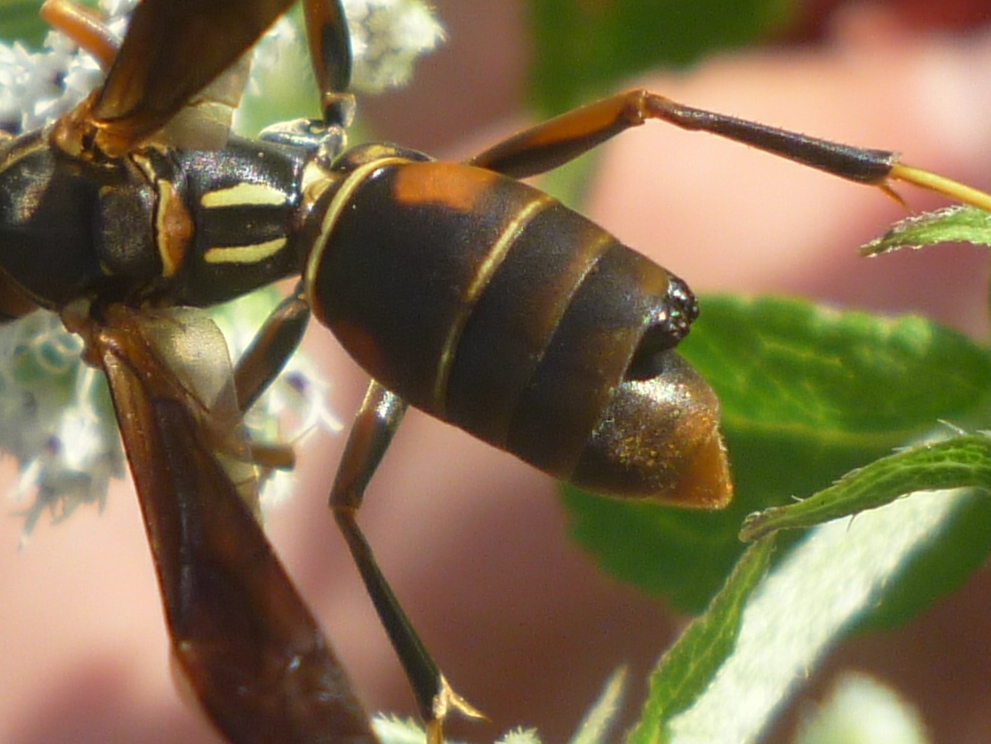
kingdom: Animalia
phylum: Arthropoda
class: Insecta
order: Strepsiptera
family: Xenidae
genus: Xenos
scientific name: Xenos pecki
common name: Twisted wing parasite
